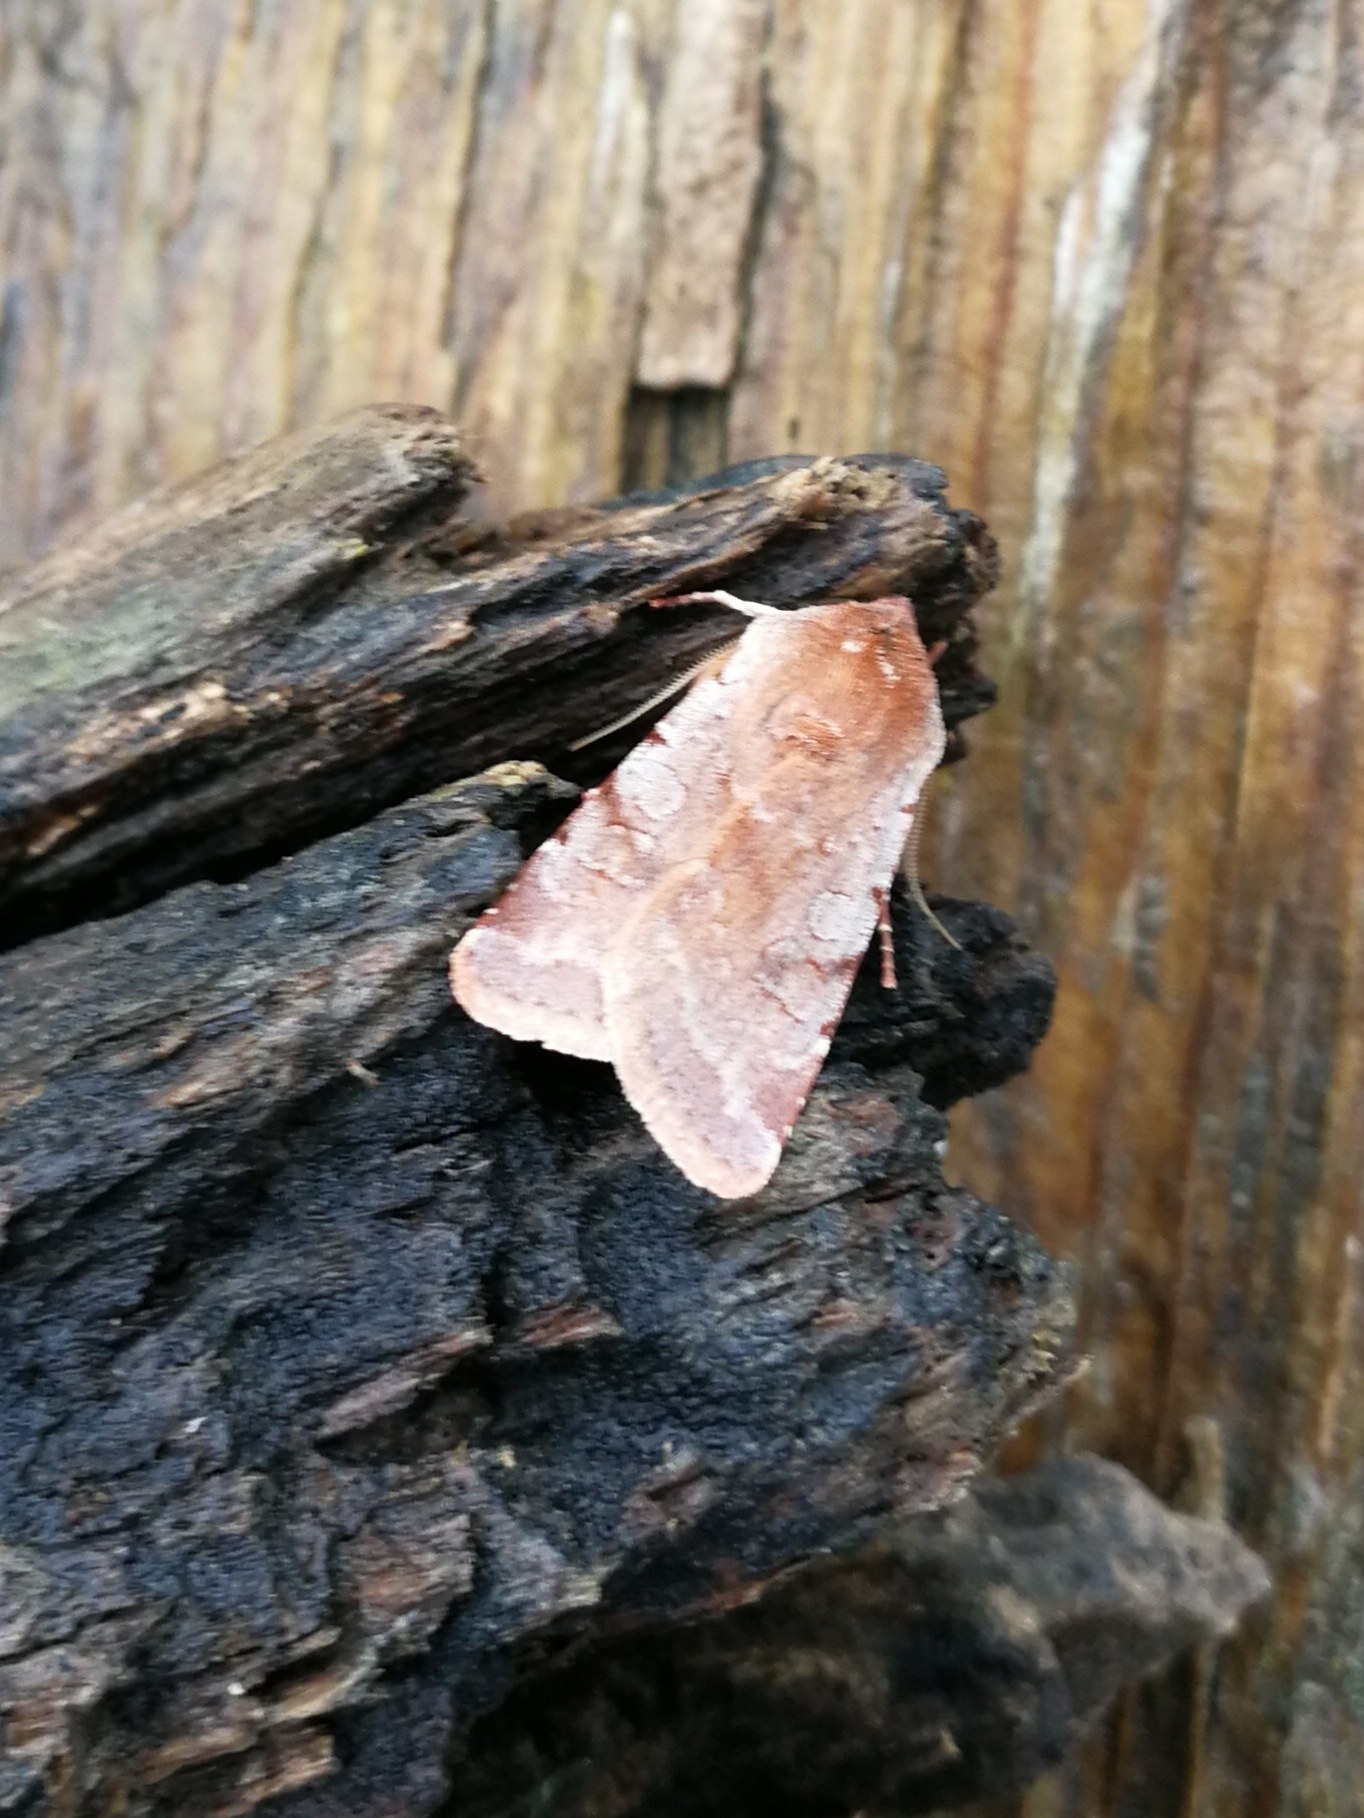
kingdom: Animalia
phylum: Arthropoda
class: Insecta
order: Lepidoptera
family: Noctuidae
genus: Cerastis
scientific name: Cerastis rubricosa
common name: Red chestnut
